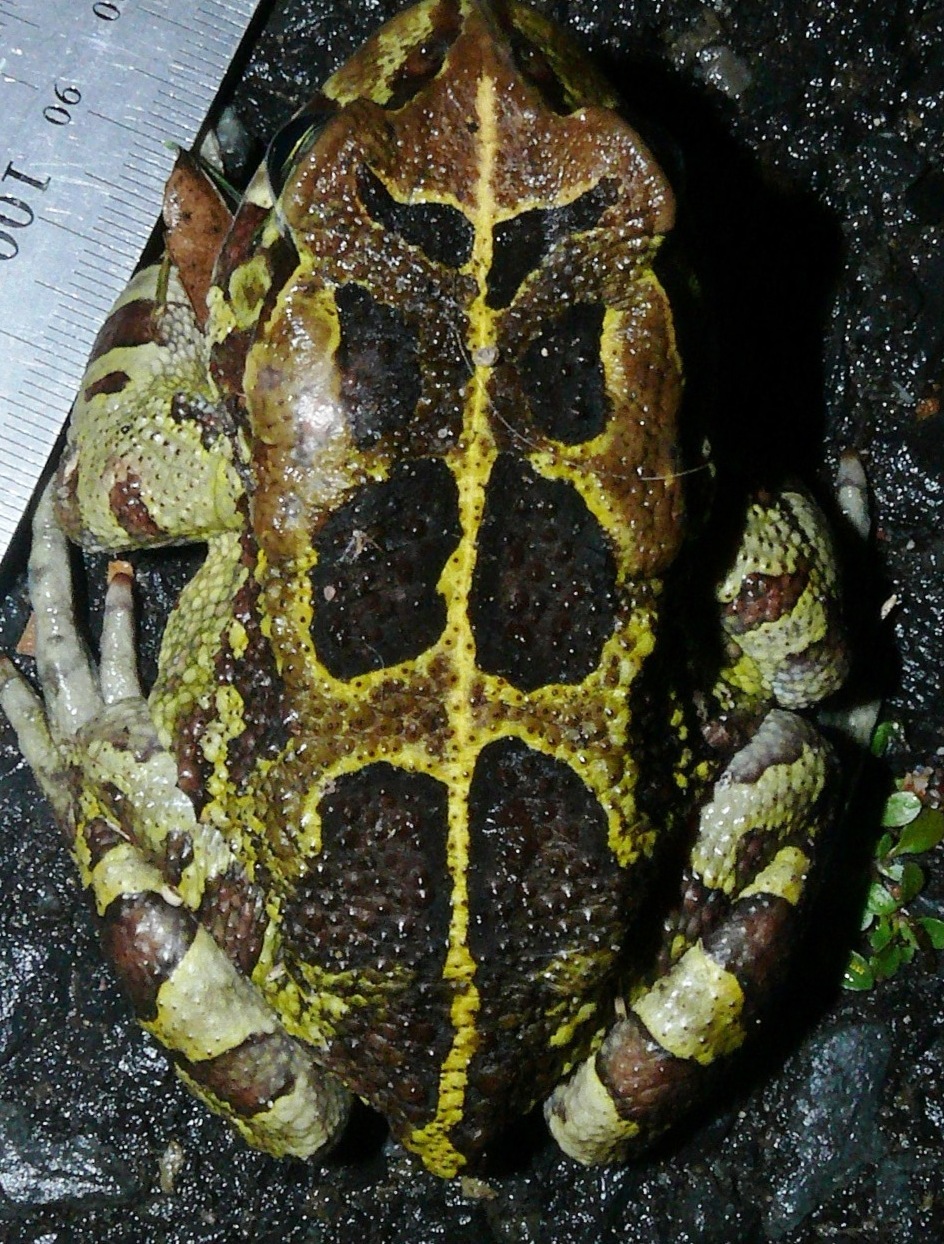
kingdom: Animalia
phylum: Chordata
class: Amphibia
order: Anura
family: Bufonidae
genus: Sclerophrys
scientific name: Sclerophrys pantherina
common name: Panther toad
